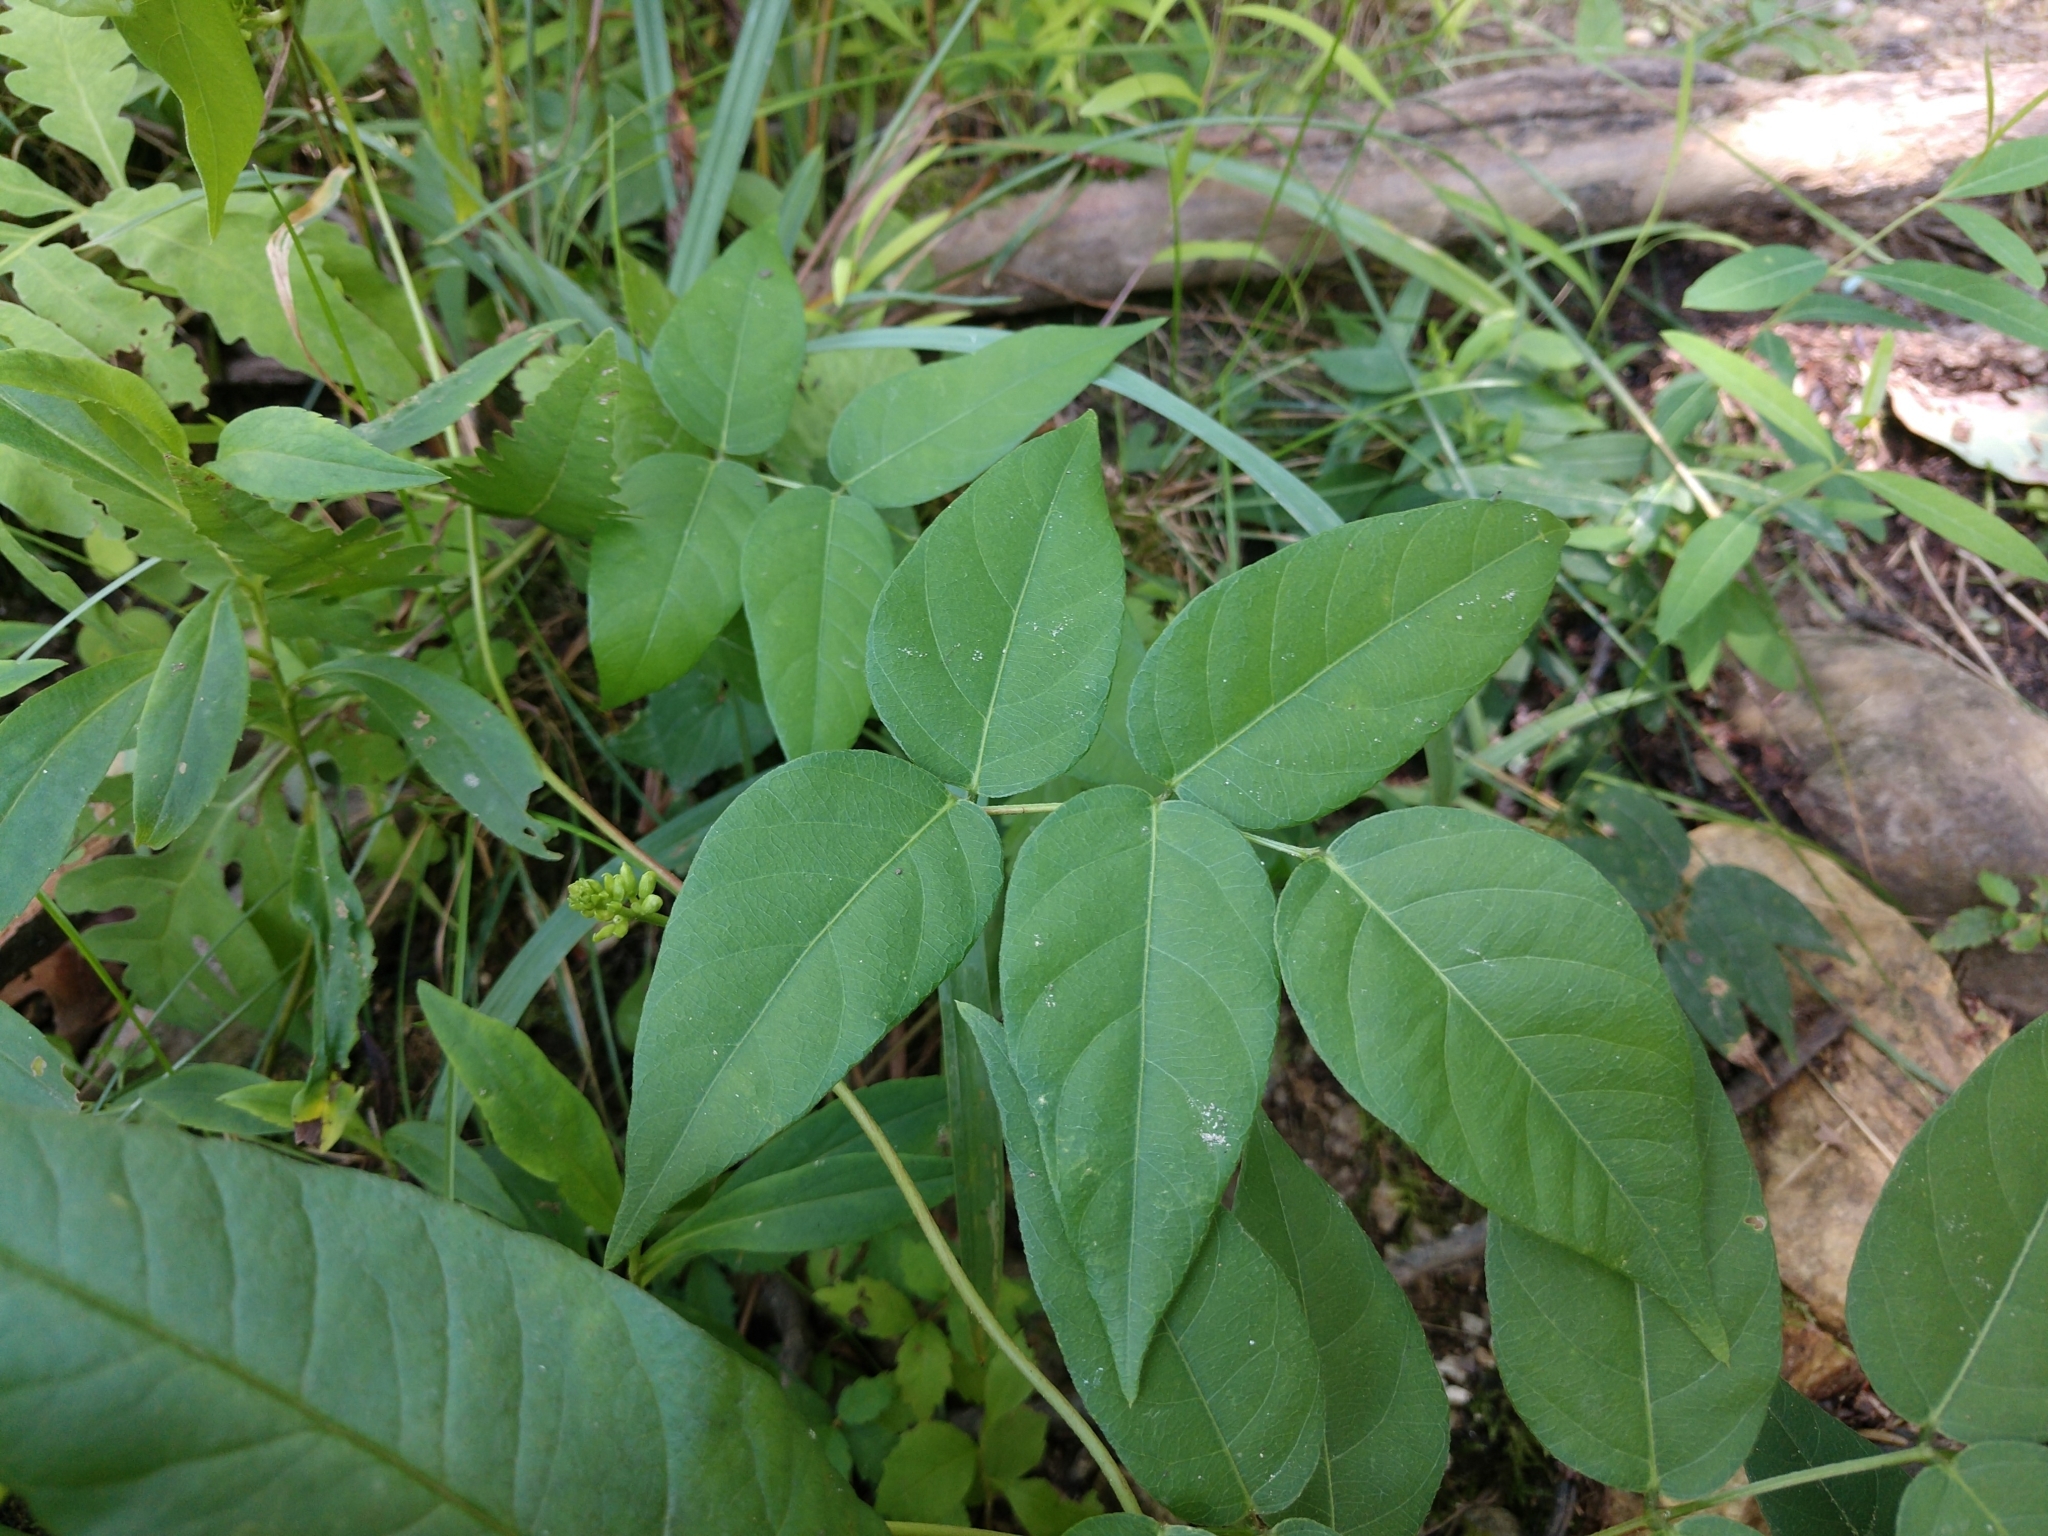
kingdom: Plantae
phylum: Tracheophyta
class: Magnoliopsida
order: Fabales
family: Fabaceae
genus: Apios
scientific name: Apios americana
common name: American potato-bean
